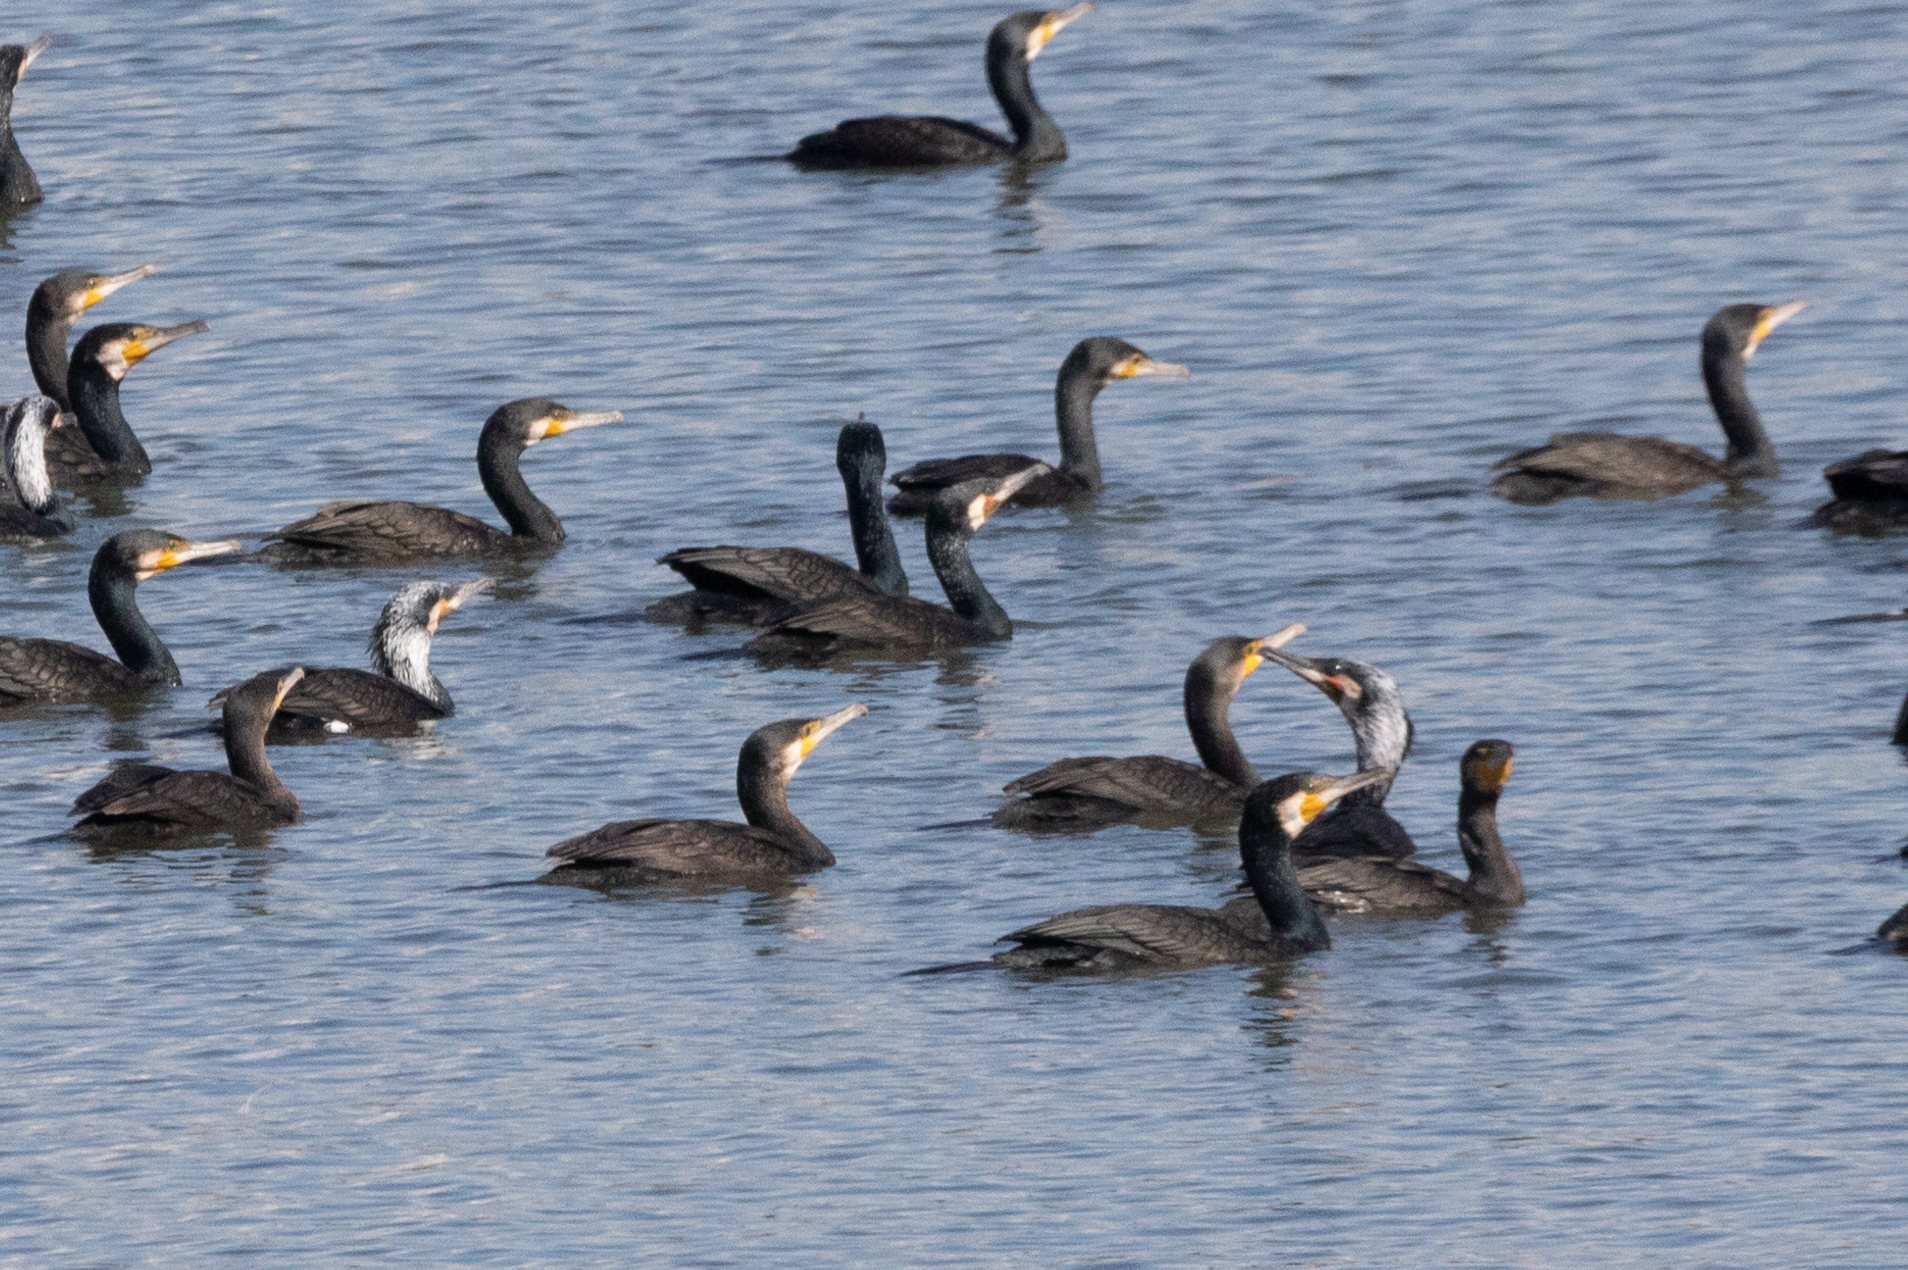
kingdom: Animalia
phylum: Chordata
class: Aves
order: Suliformes
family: Phalacrocoracidae
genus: Phalacrocorax
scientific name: Phalacrocorax carbo
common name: Great cormorant
